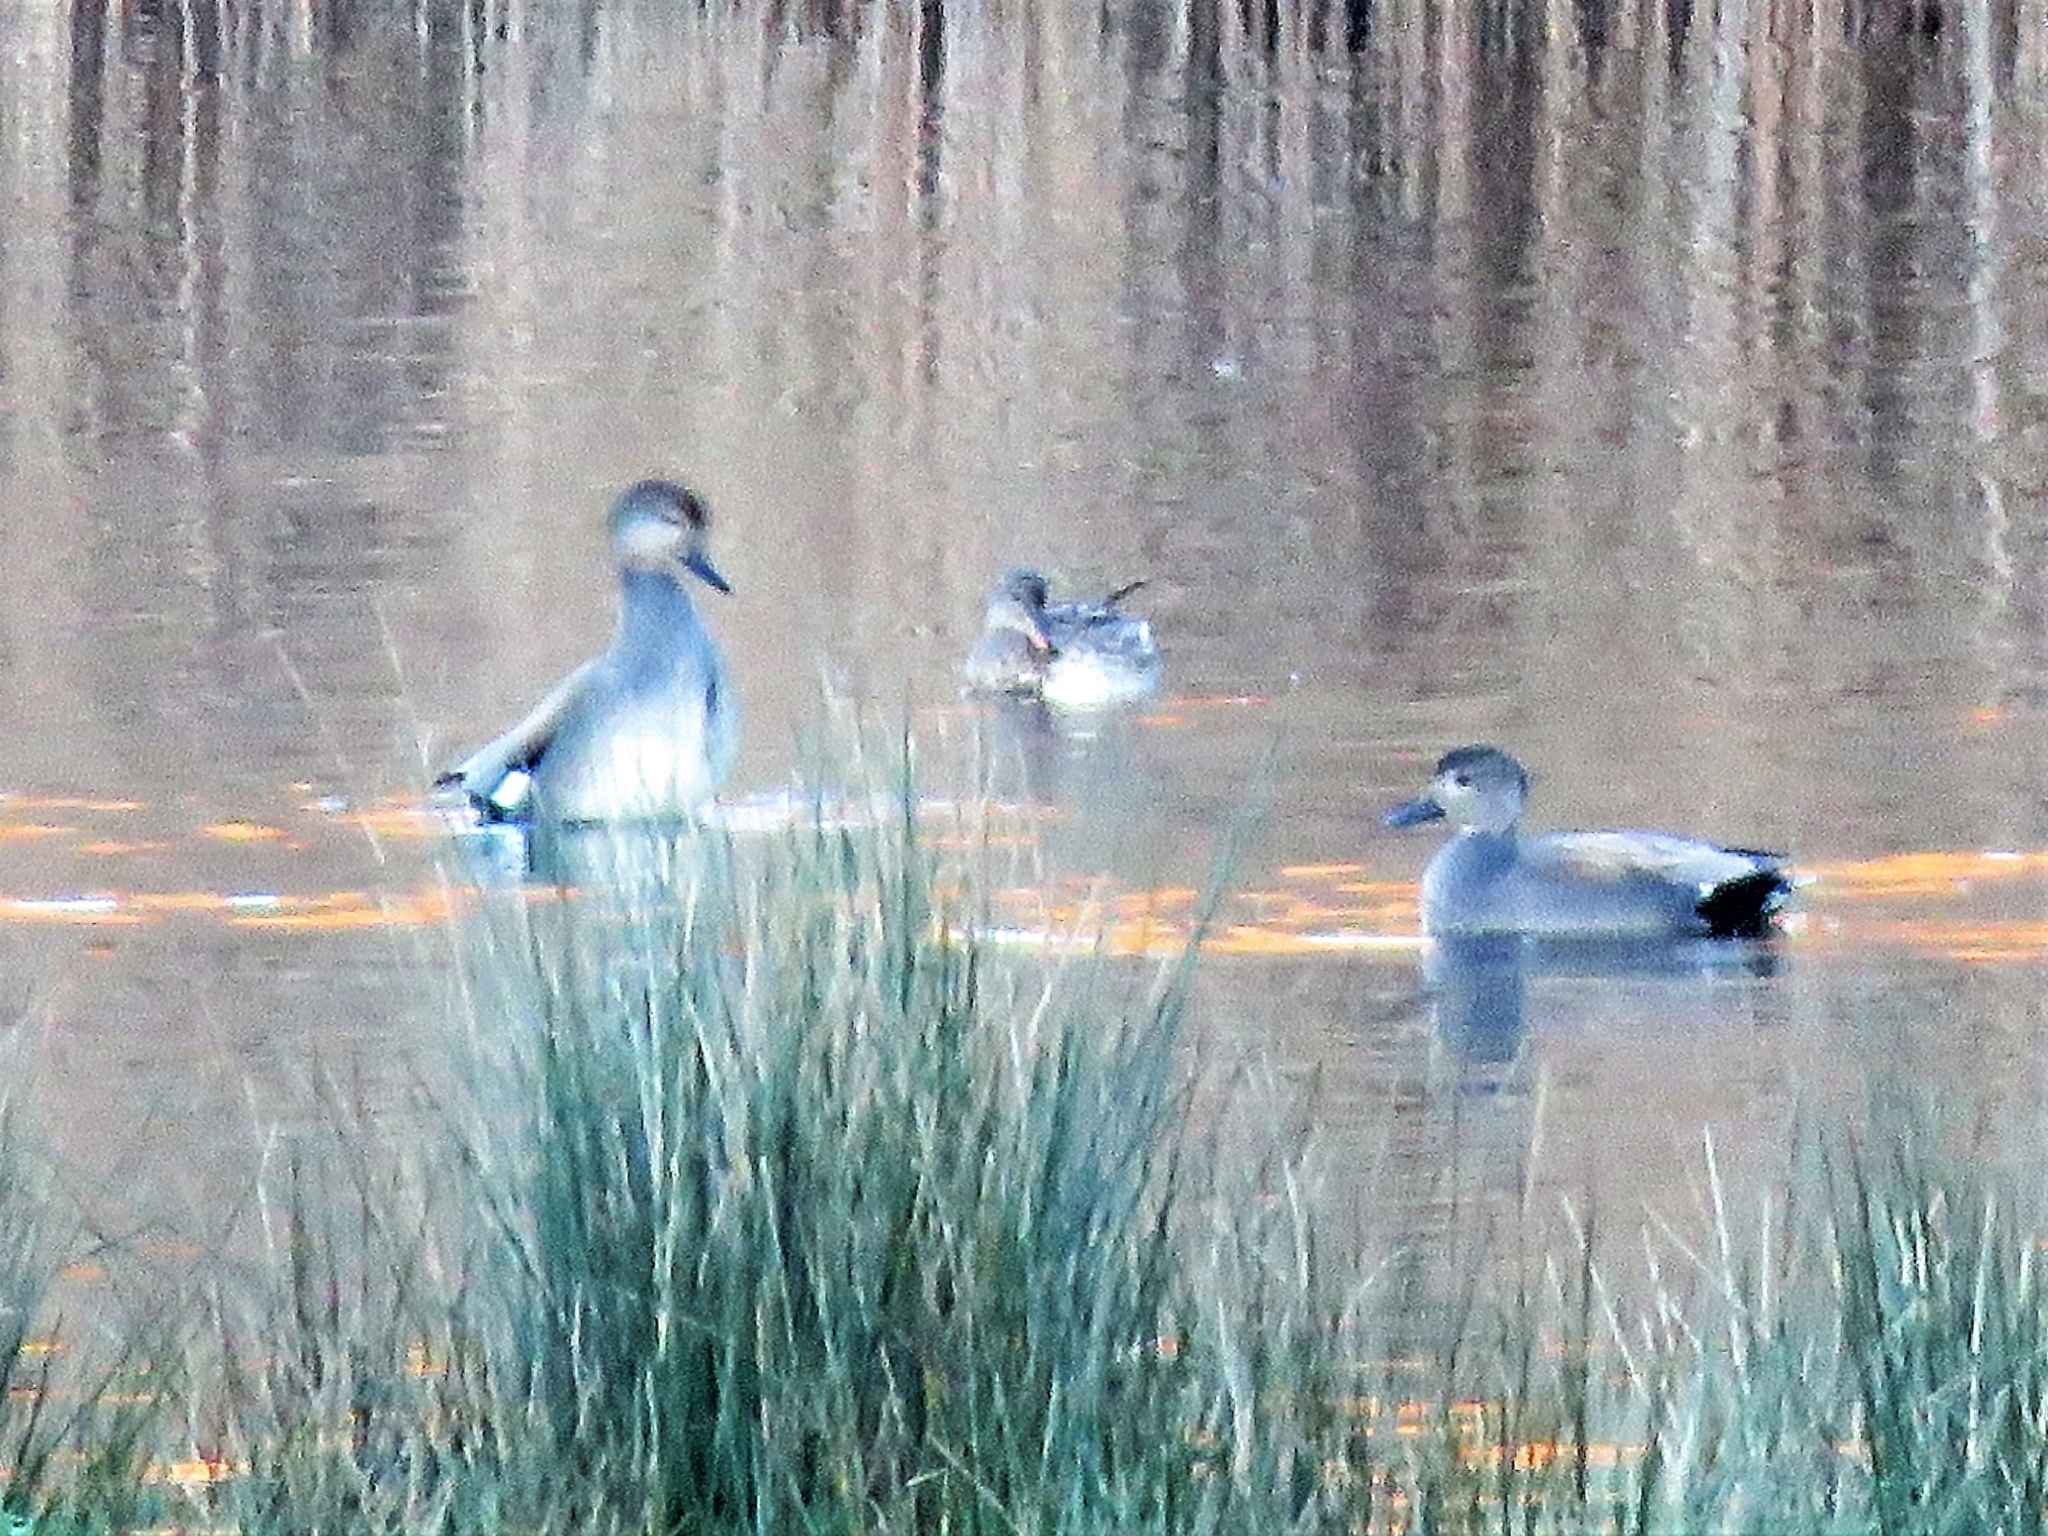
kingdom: Animalia
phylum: Chordata
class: Aves
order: Anseriformes
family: Anatidae
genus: Mareca
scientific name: Mareca strepera
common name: Gadwall
